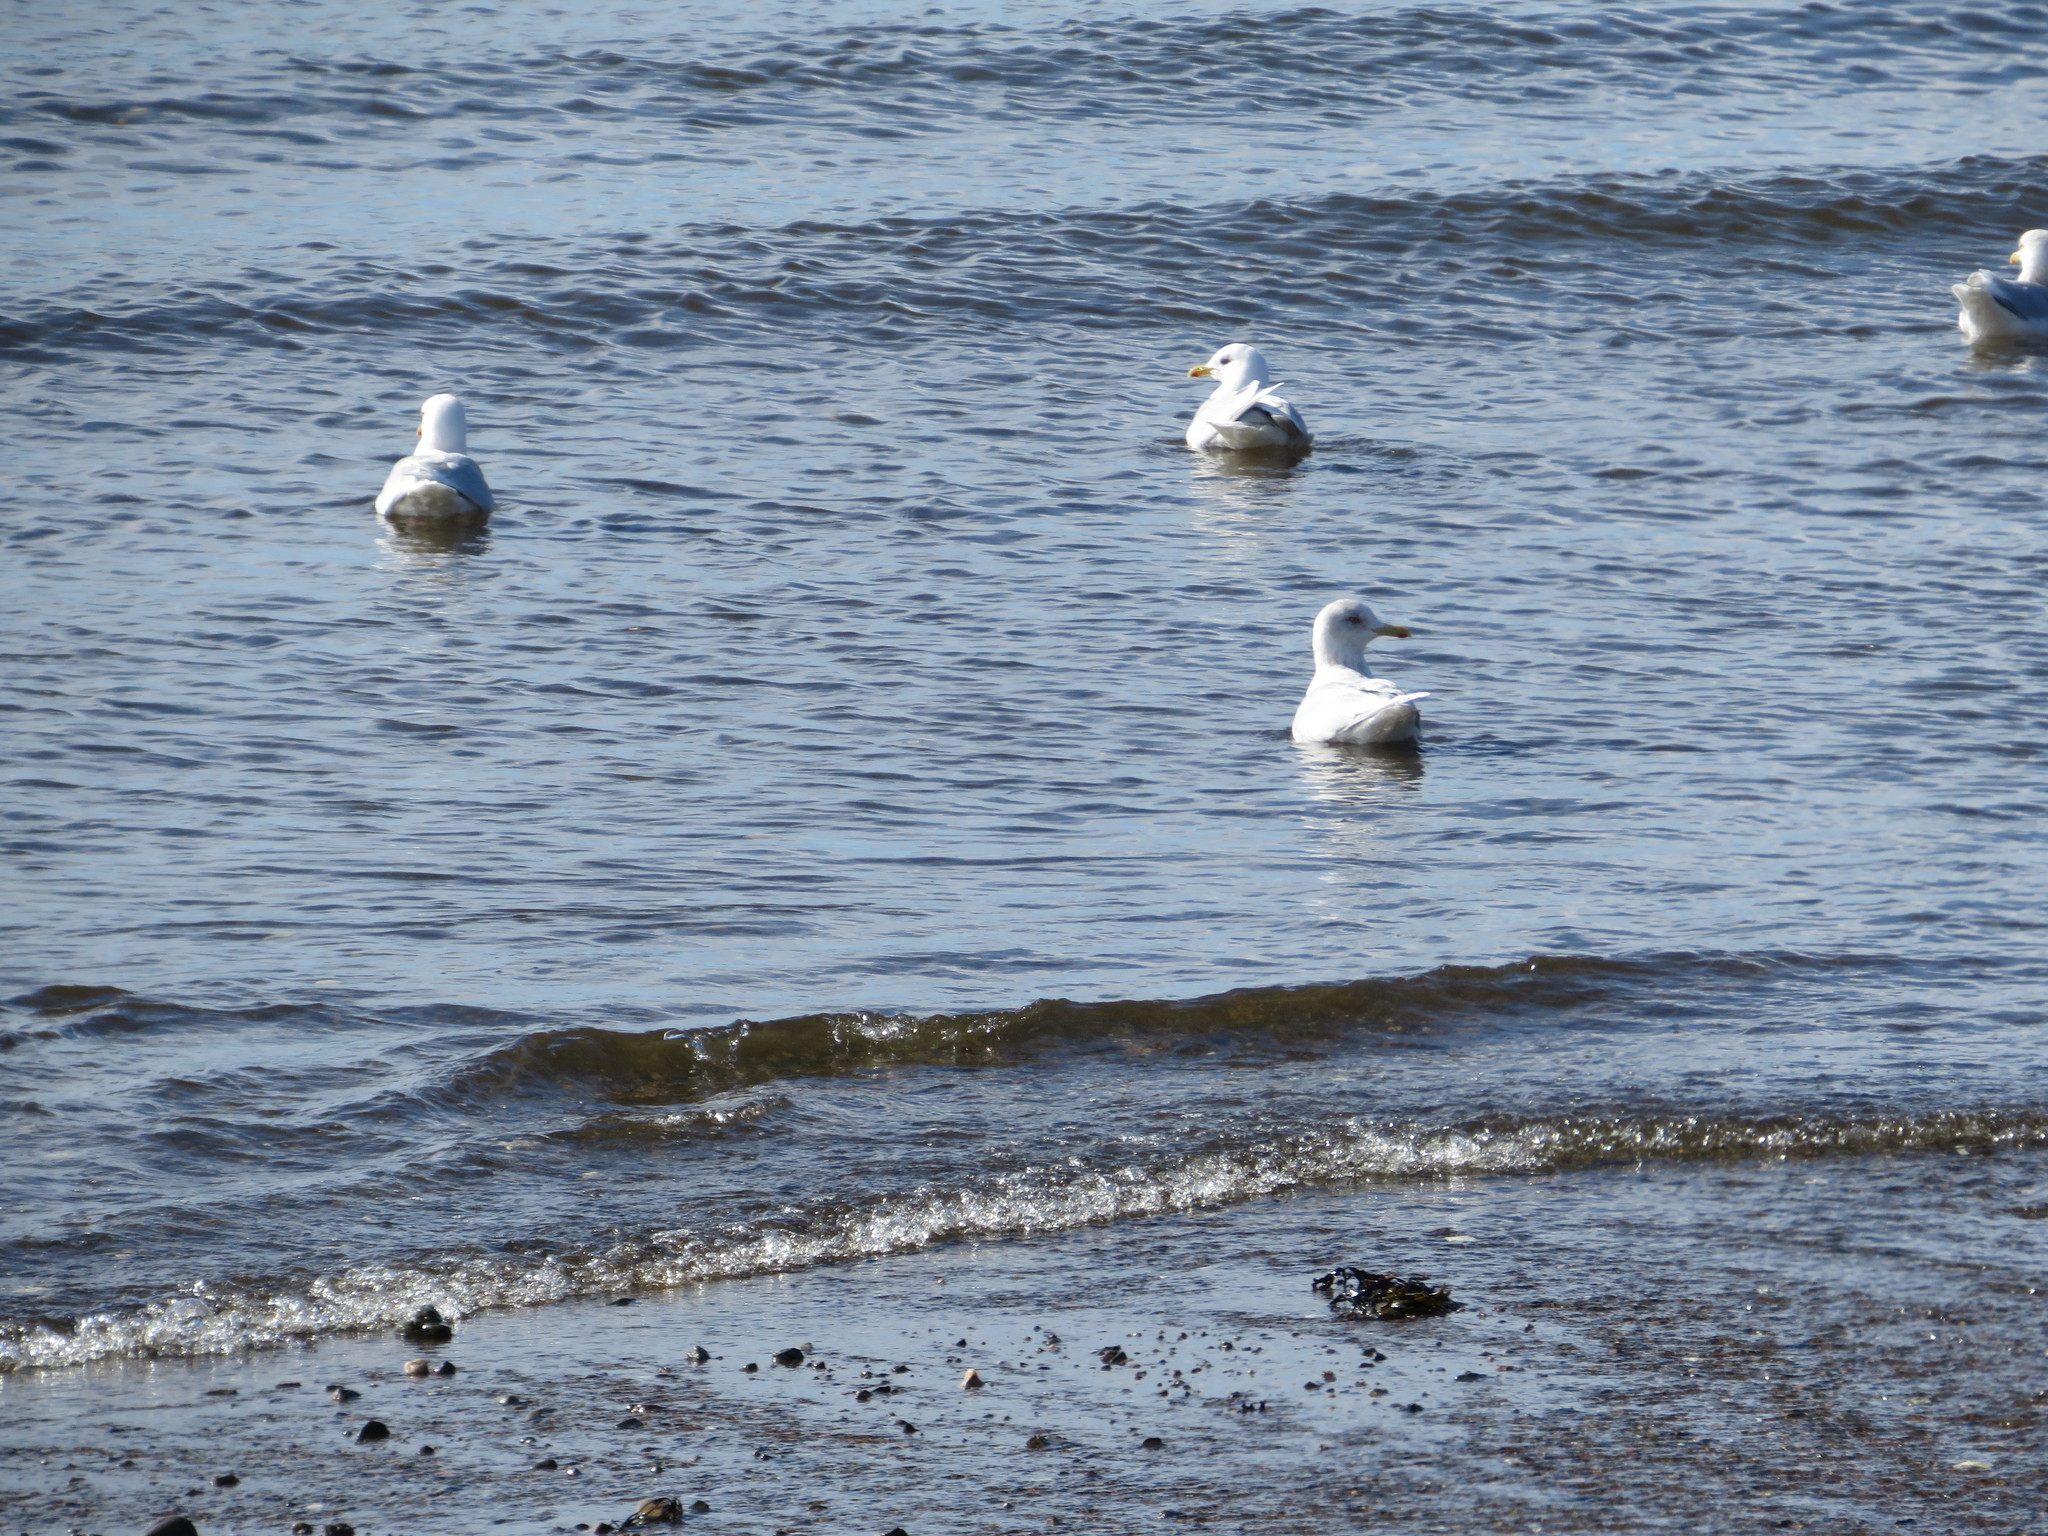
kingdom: Animalia
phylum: Chordata
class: Aves
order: Charadriiformes
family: Laridae
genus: Larus
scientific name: Larus glaucoides
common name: Iceland gull
